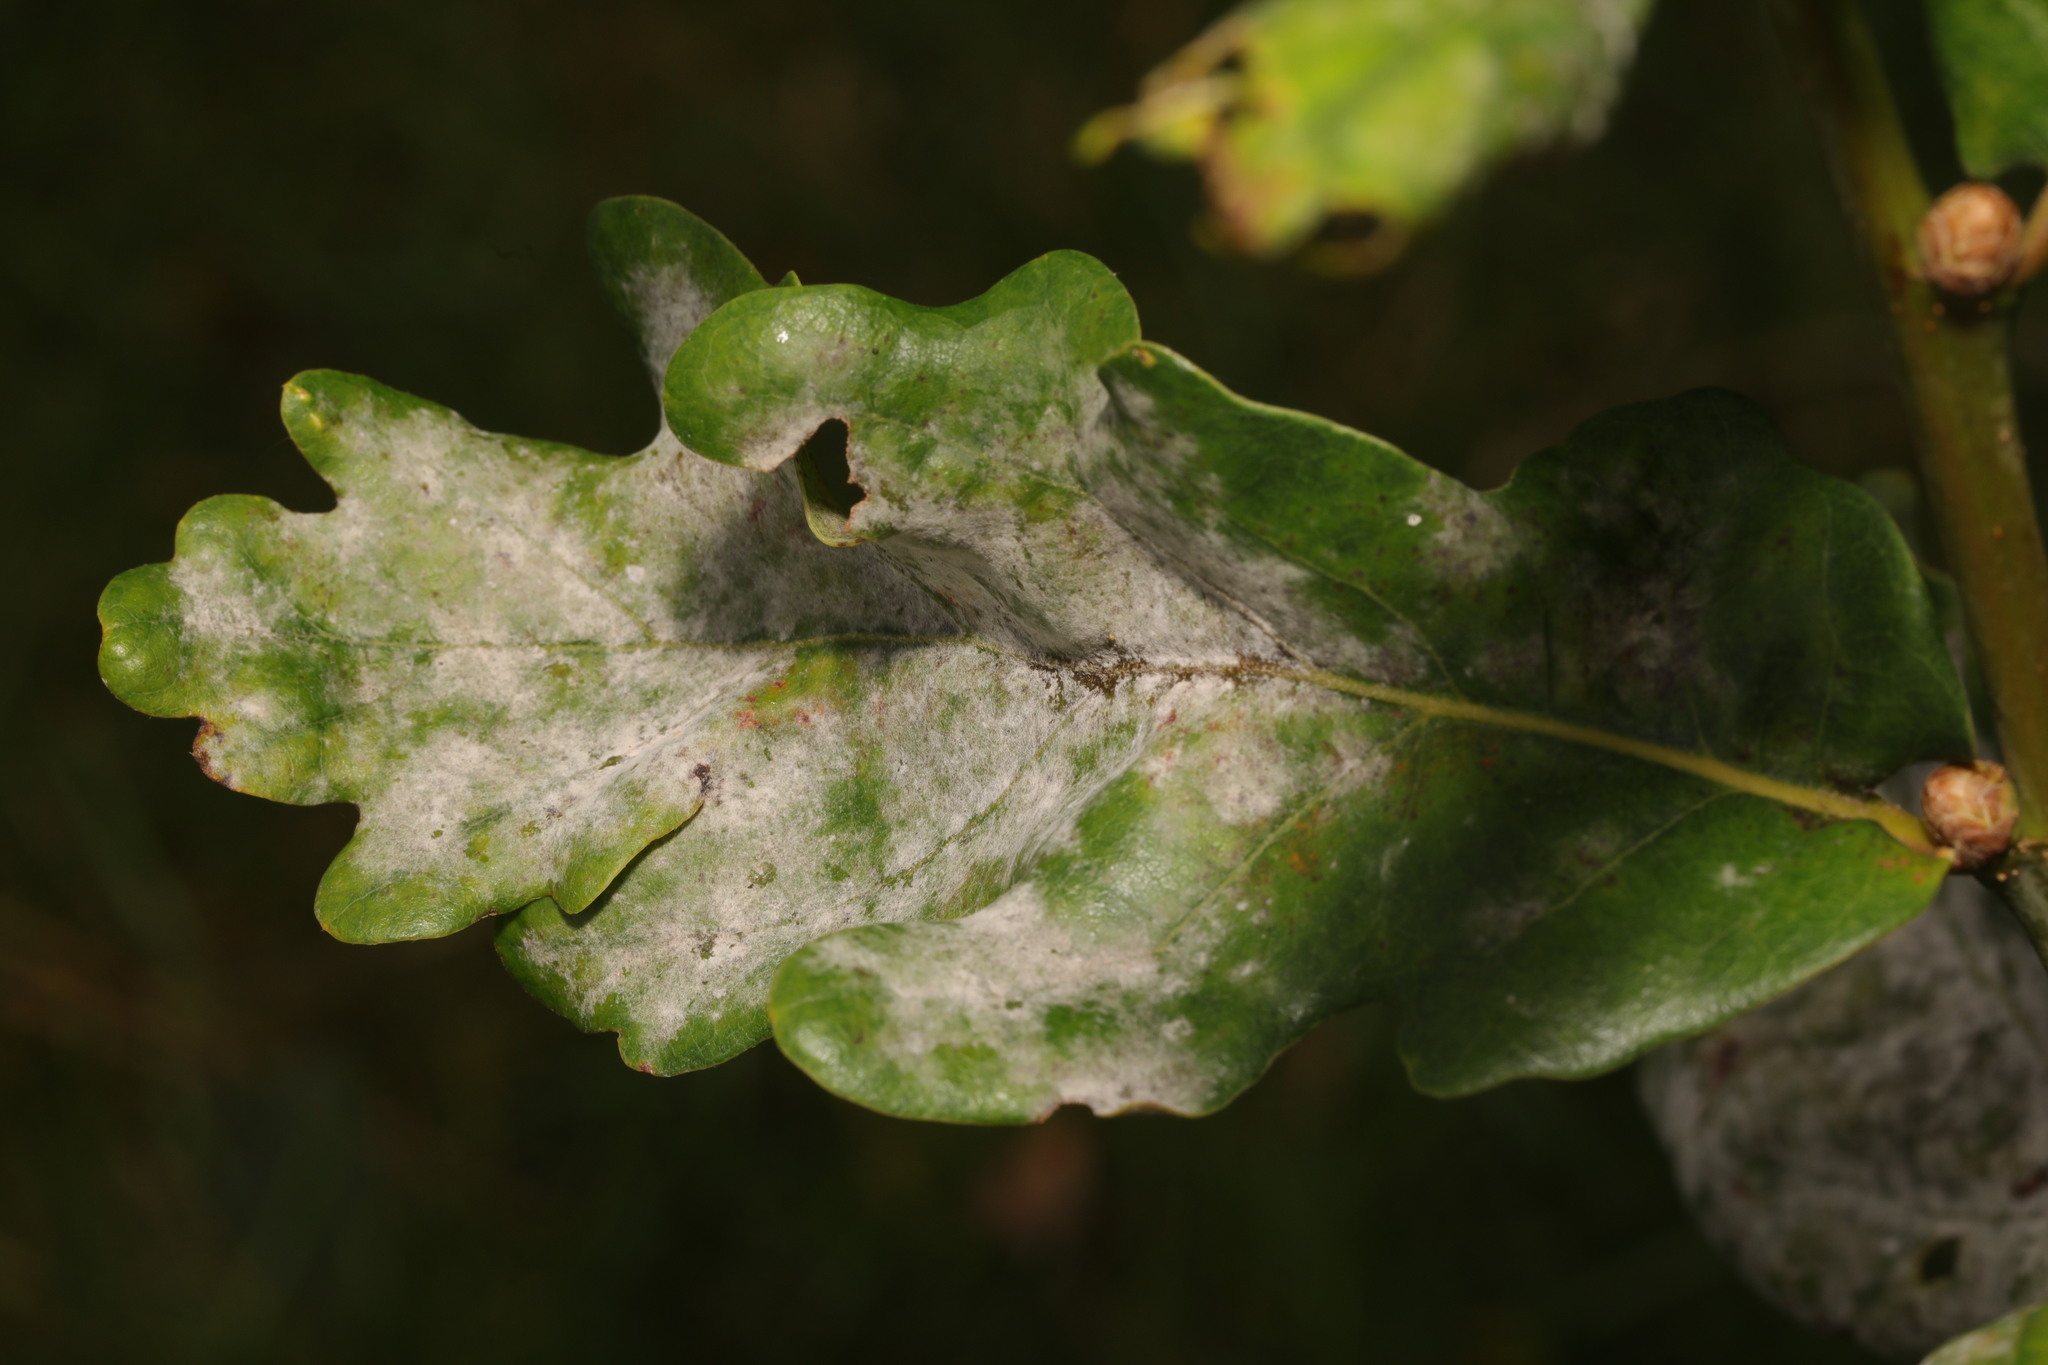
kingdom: Fungi
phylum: Ascomycota
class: Leotiomycetes
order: Helotiales
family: Erysiphaceae
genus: Erysiphe
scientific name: Erysiphe alphitoides
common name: Oak mildew
